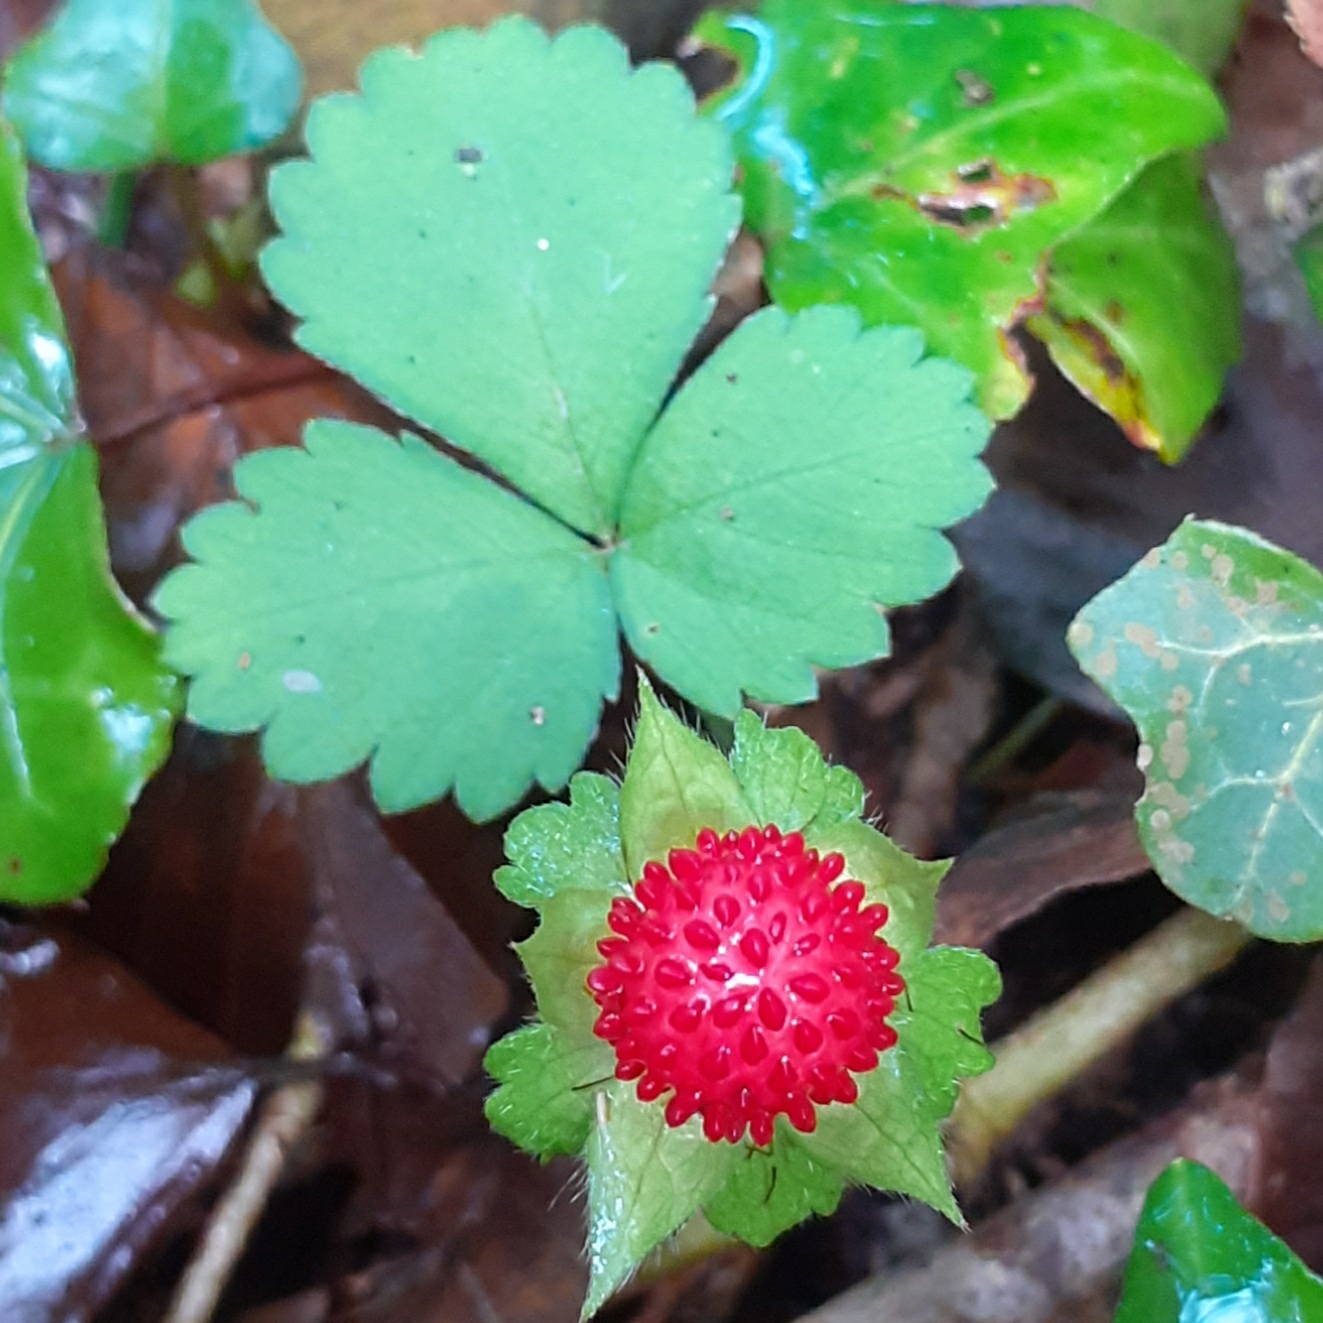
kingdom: Plantae
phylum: Tracheophyta
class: Magnoliopsida
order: Rosales
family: Rosaceae
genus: Potentilla
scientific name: Potentilla indica
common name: Yellow-flowered strawberry
